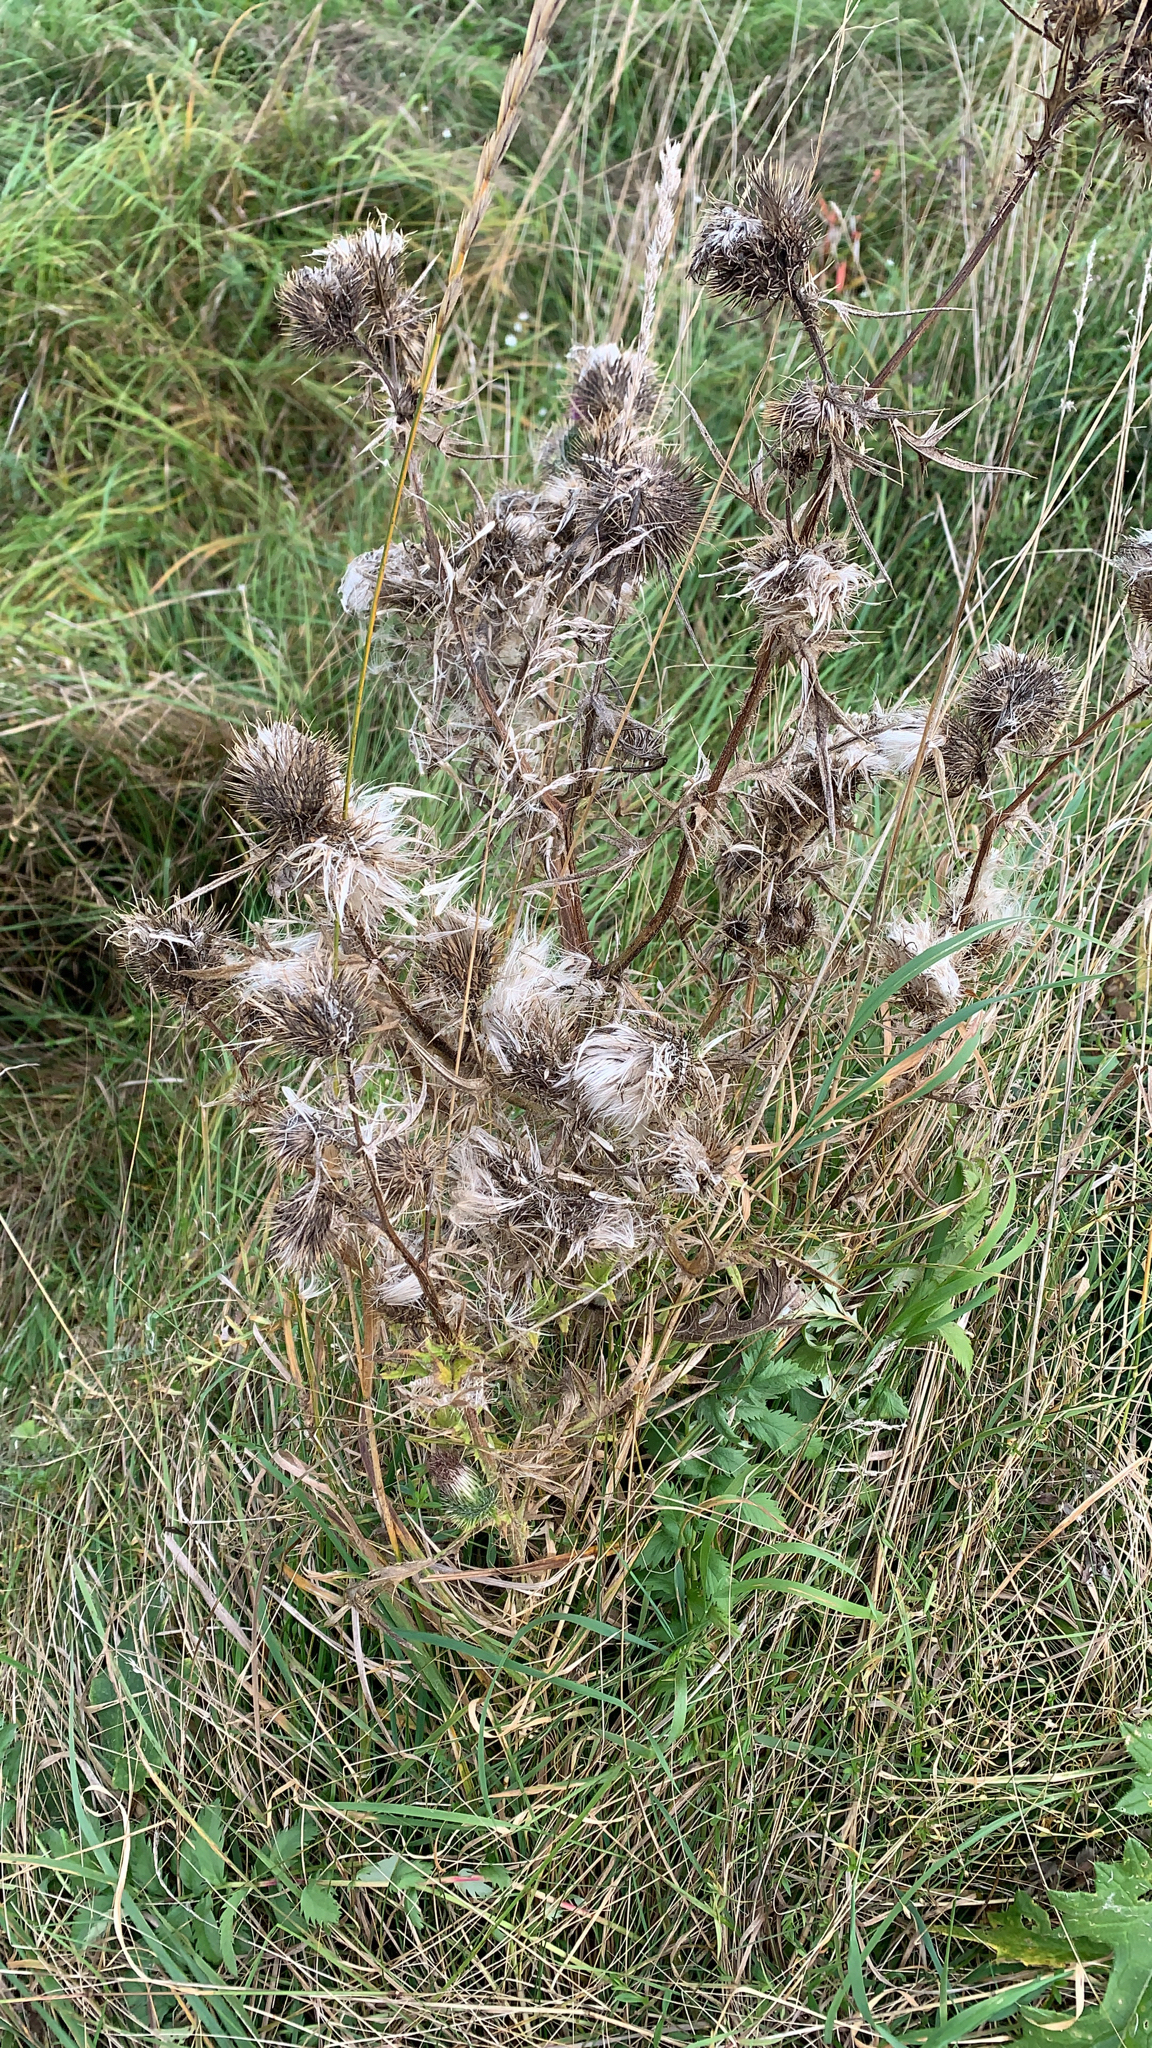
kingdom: Plantae
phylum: Tracheophyta
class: Magnoliopsida
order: Asterales
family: Asteraceae
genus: Cirsium
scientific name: Cirsium vulgare
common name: Bull thistle
